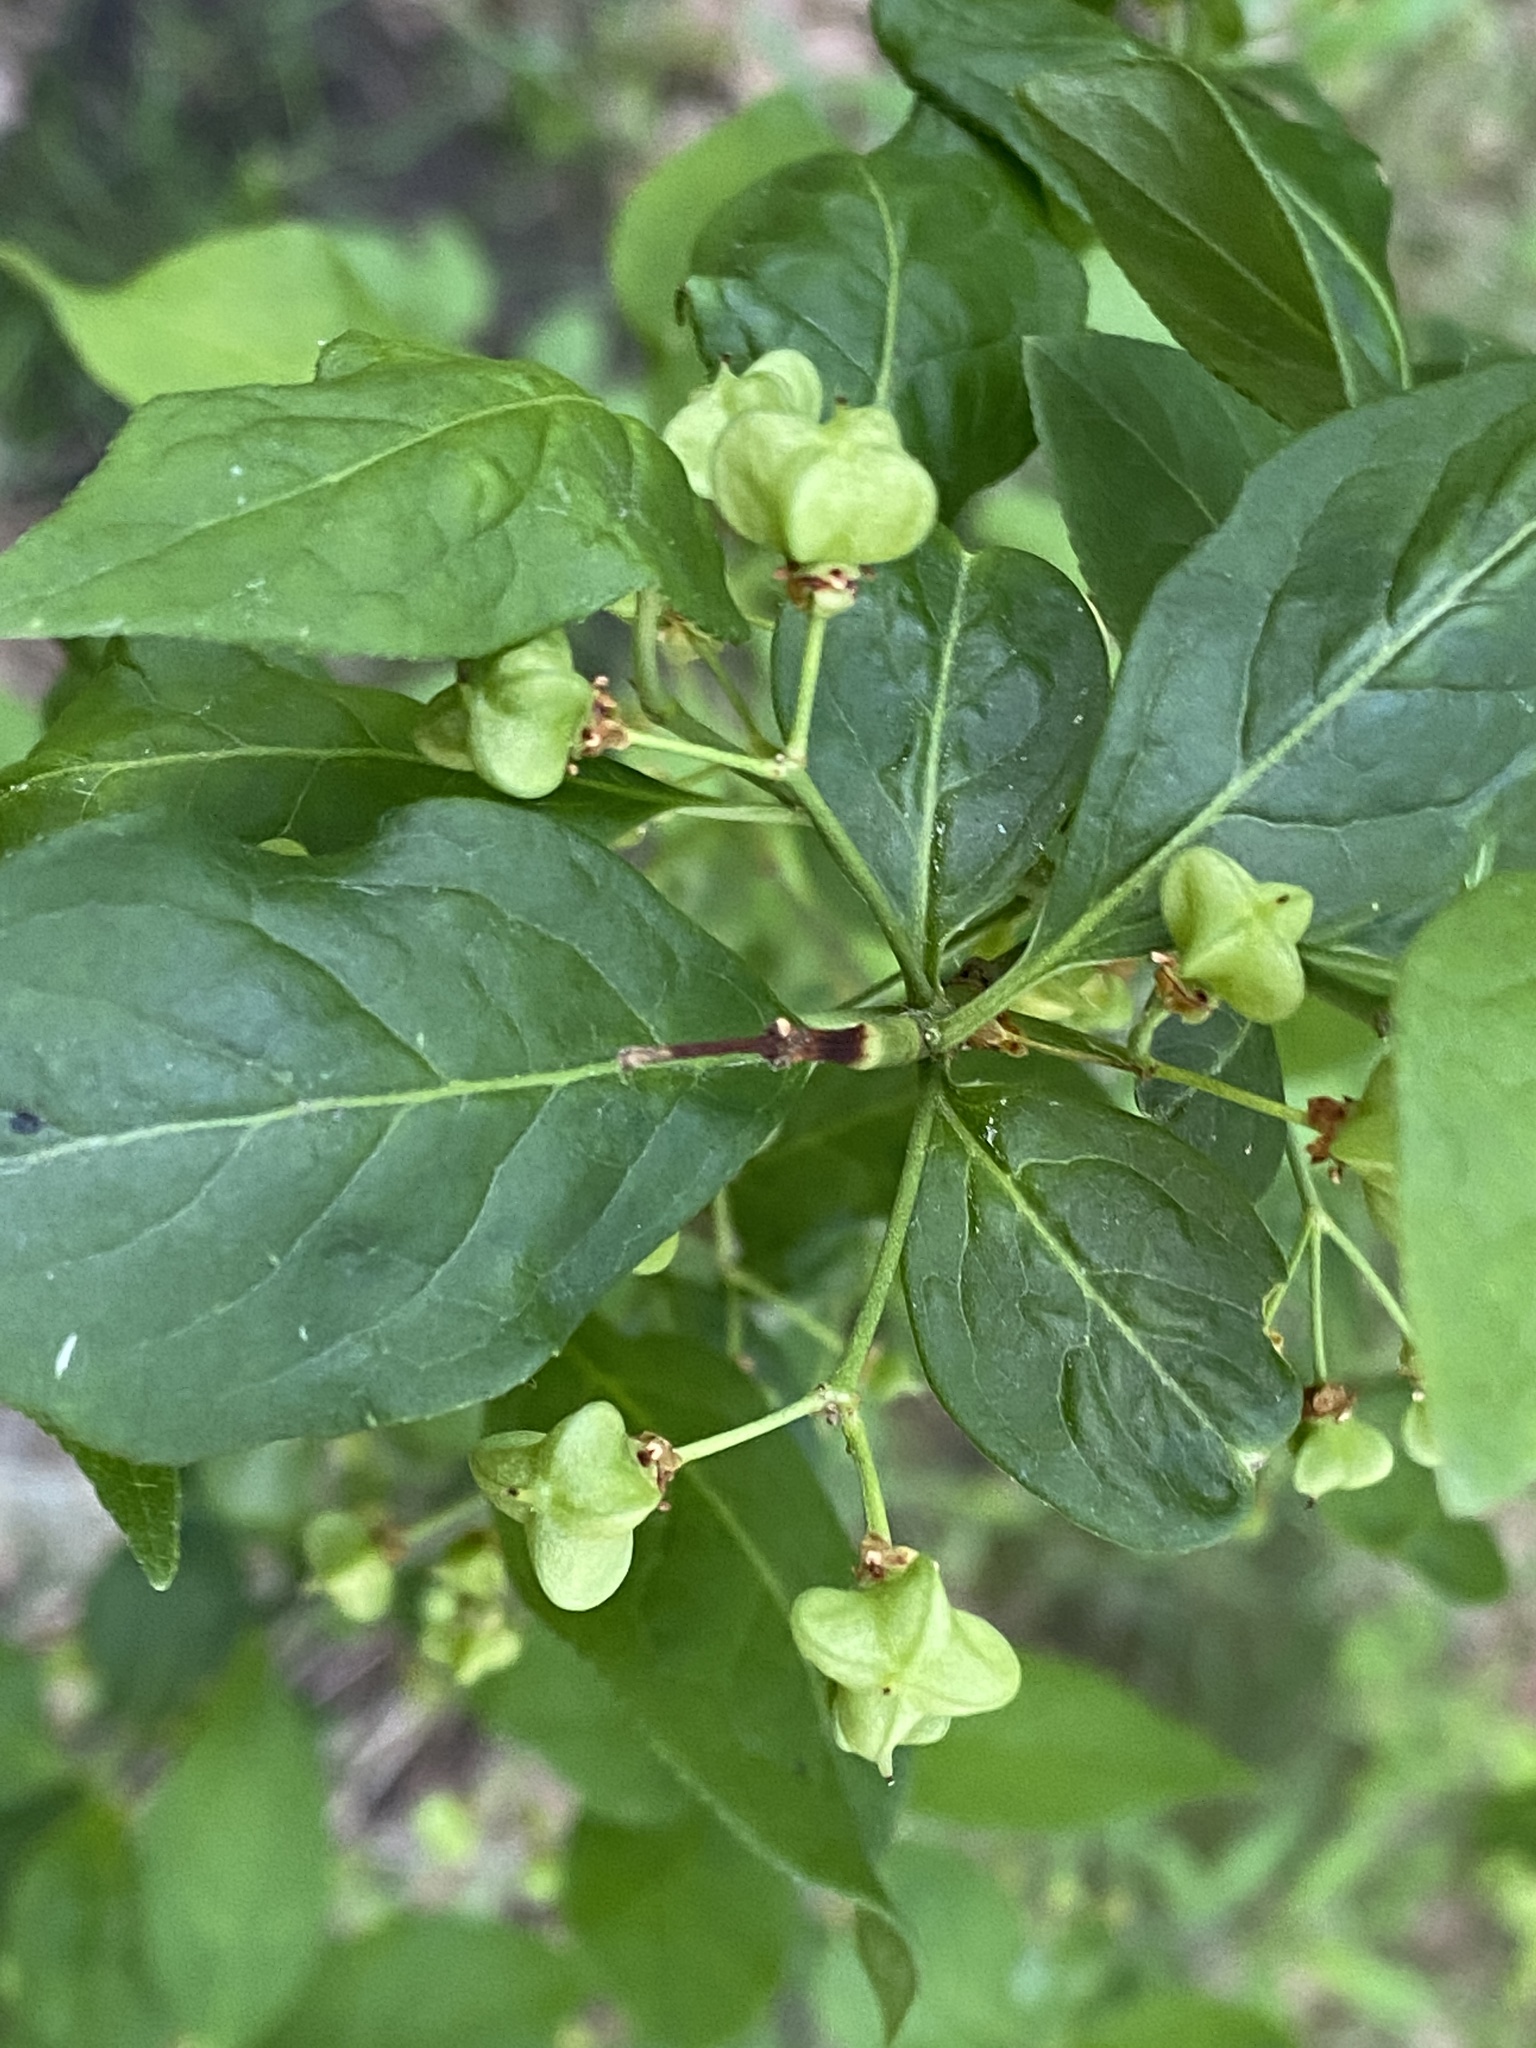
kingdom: Plantae
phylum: Tracheophyta
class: Magnoliopsida
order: Celastrales
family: Celastraceae
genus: Euonymus
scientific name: Euonymus europaeus
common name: Spindle
